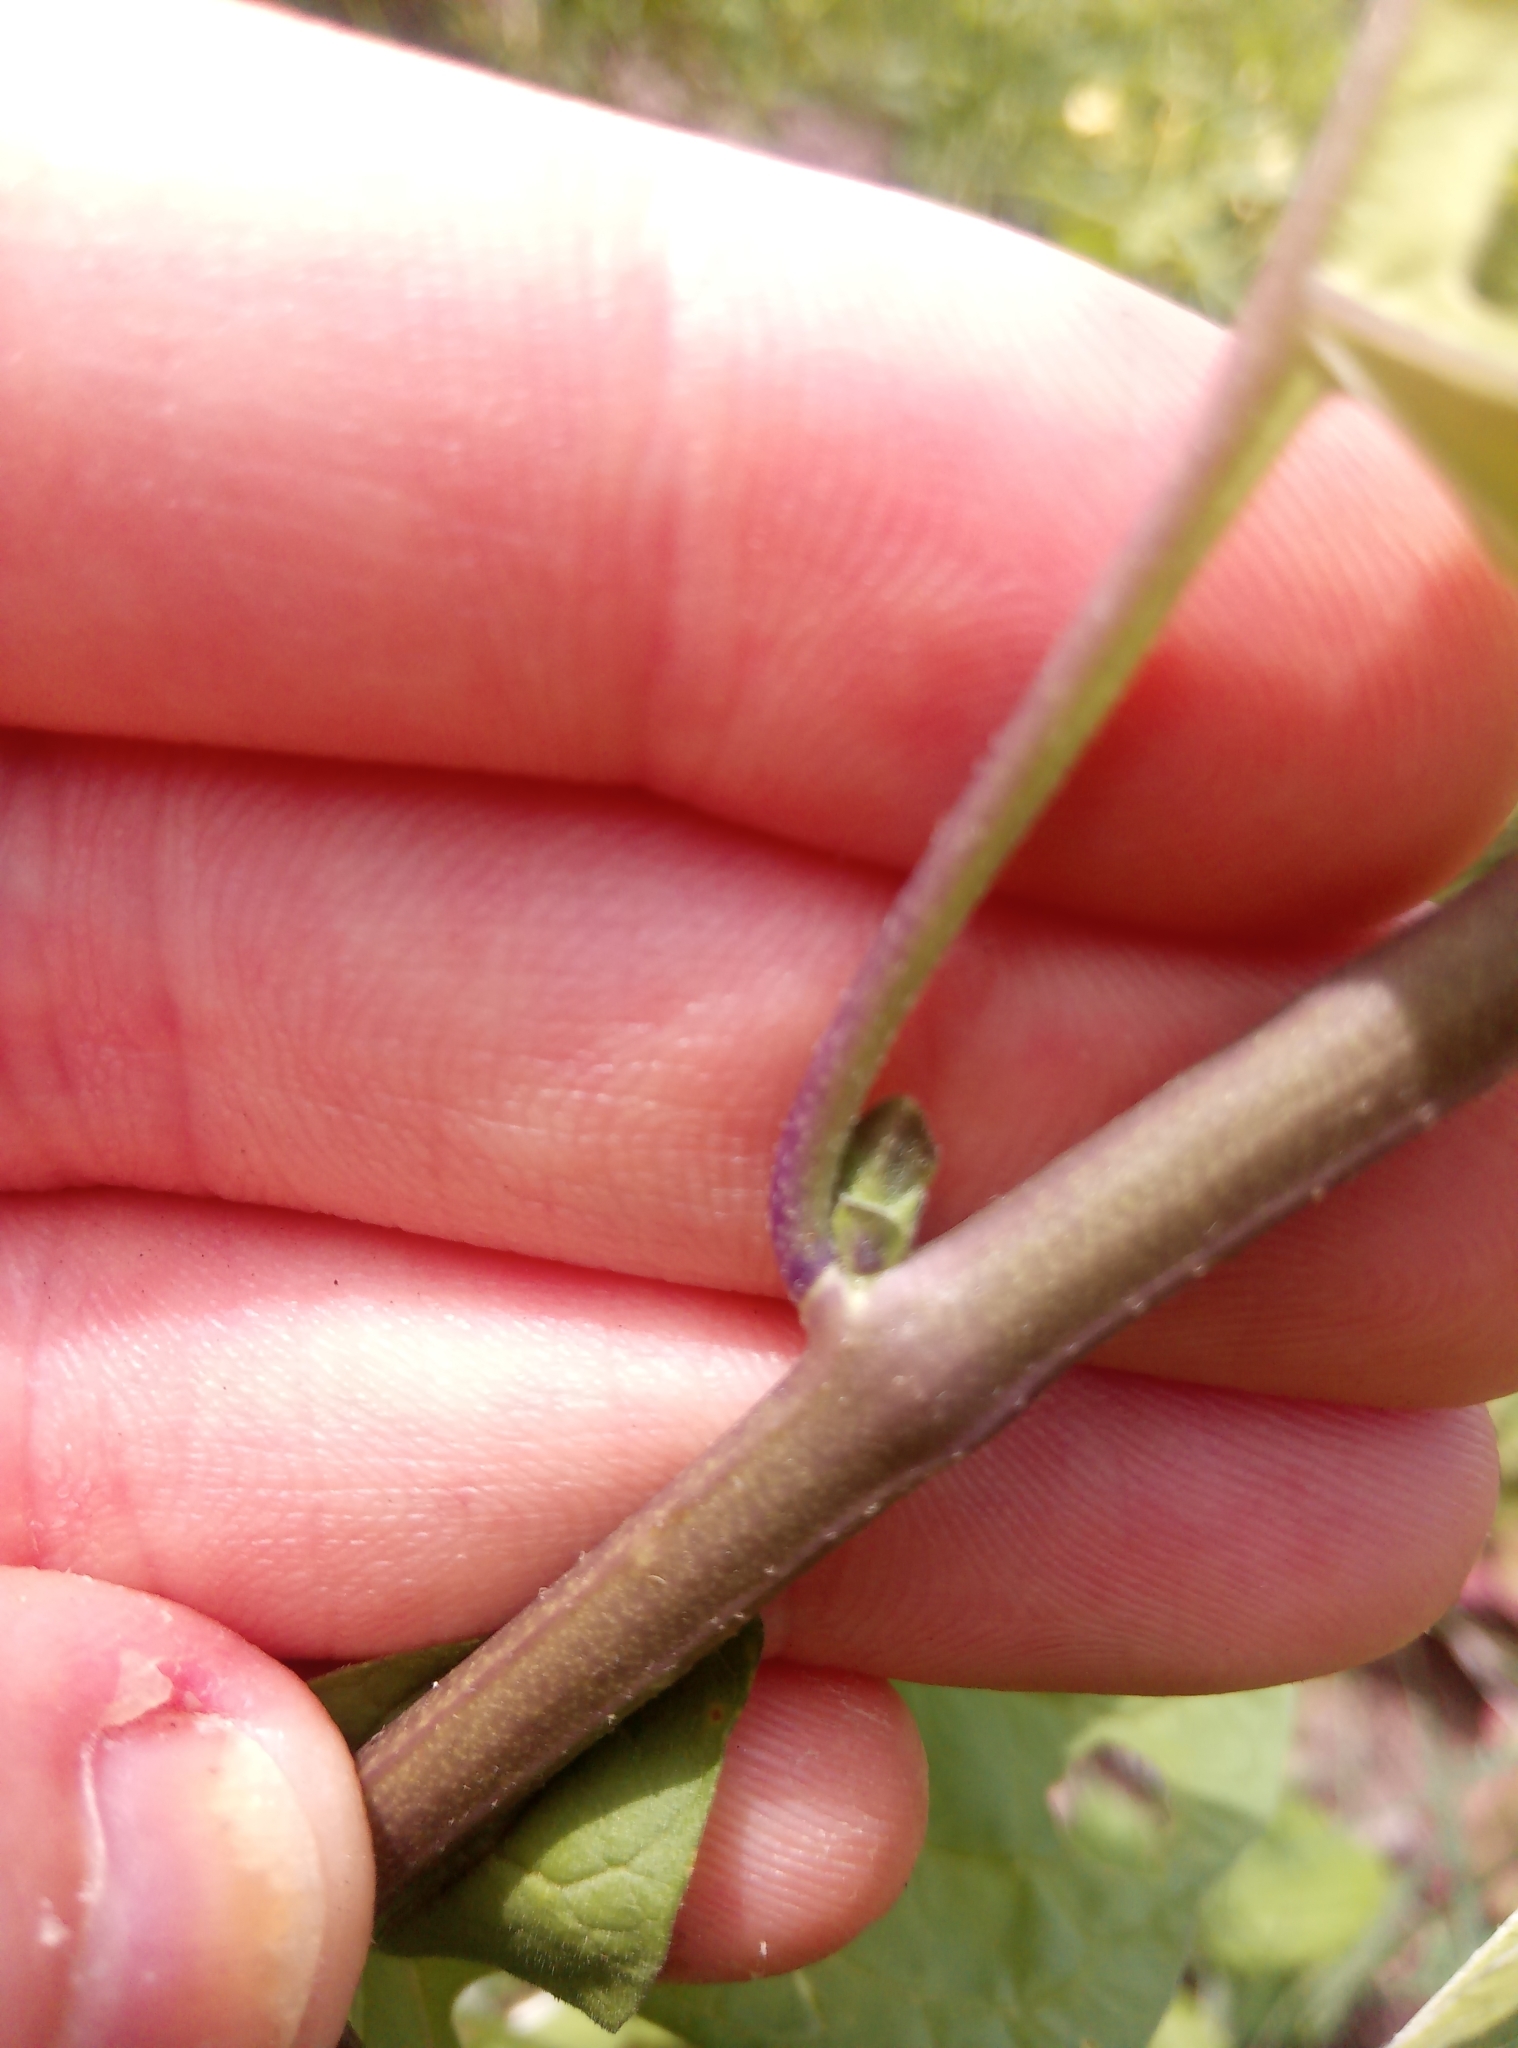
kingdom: Plantae
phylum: Tracheophyta
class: Magnoliopsida
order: Solanales
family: Solanaceae
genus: Solanum
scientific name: Solanum dulcamara
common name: Climbing nightshade
